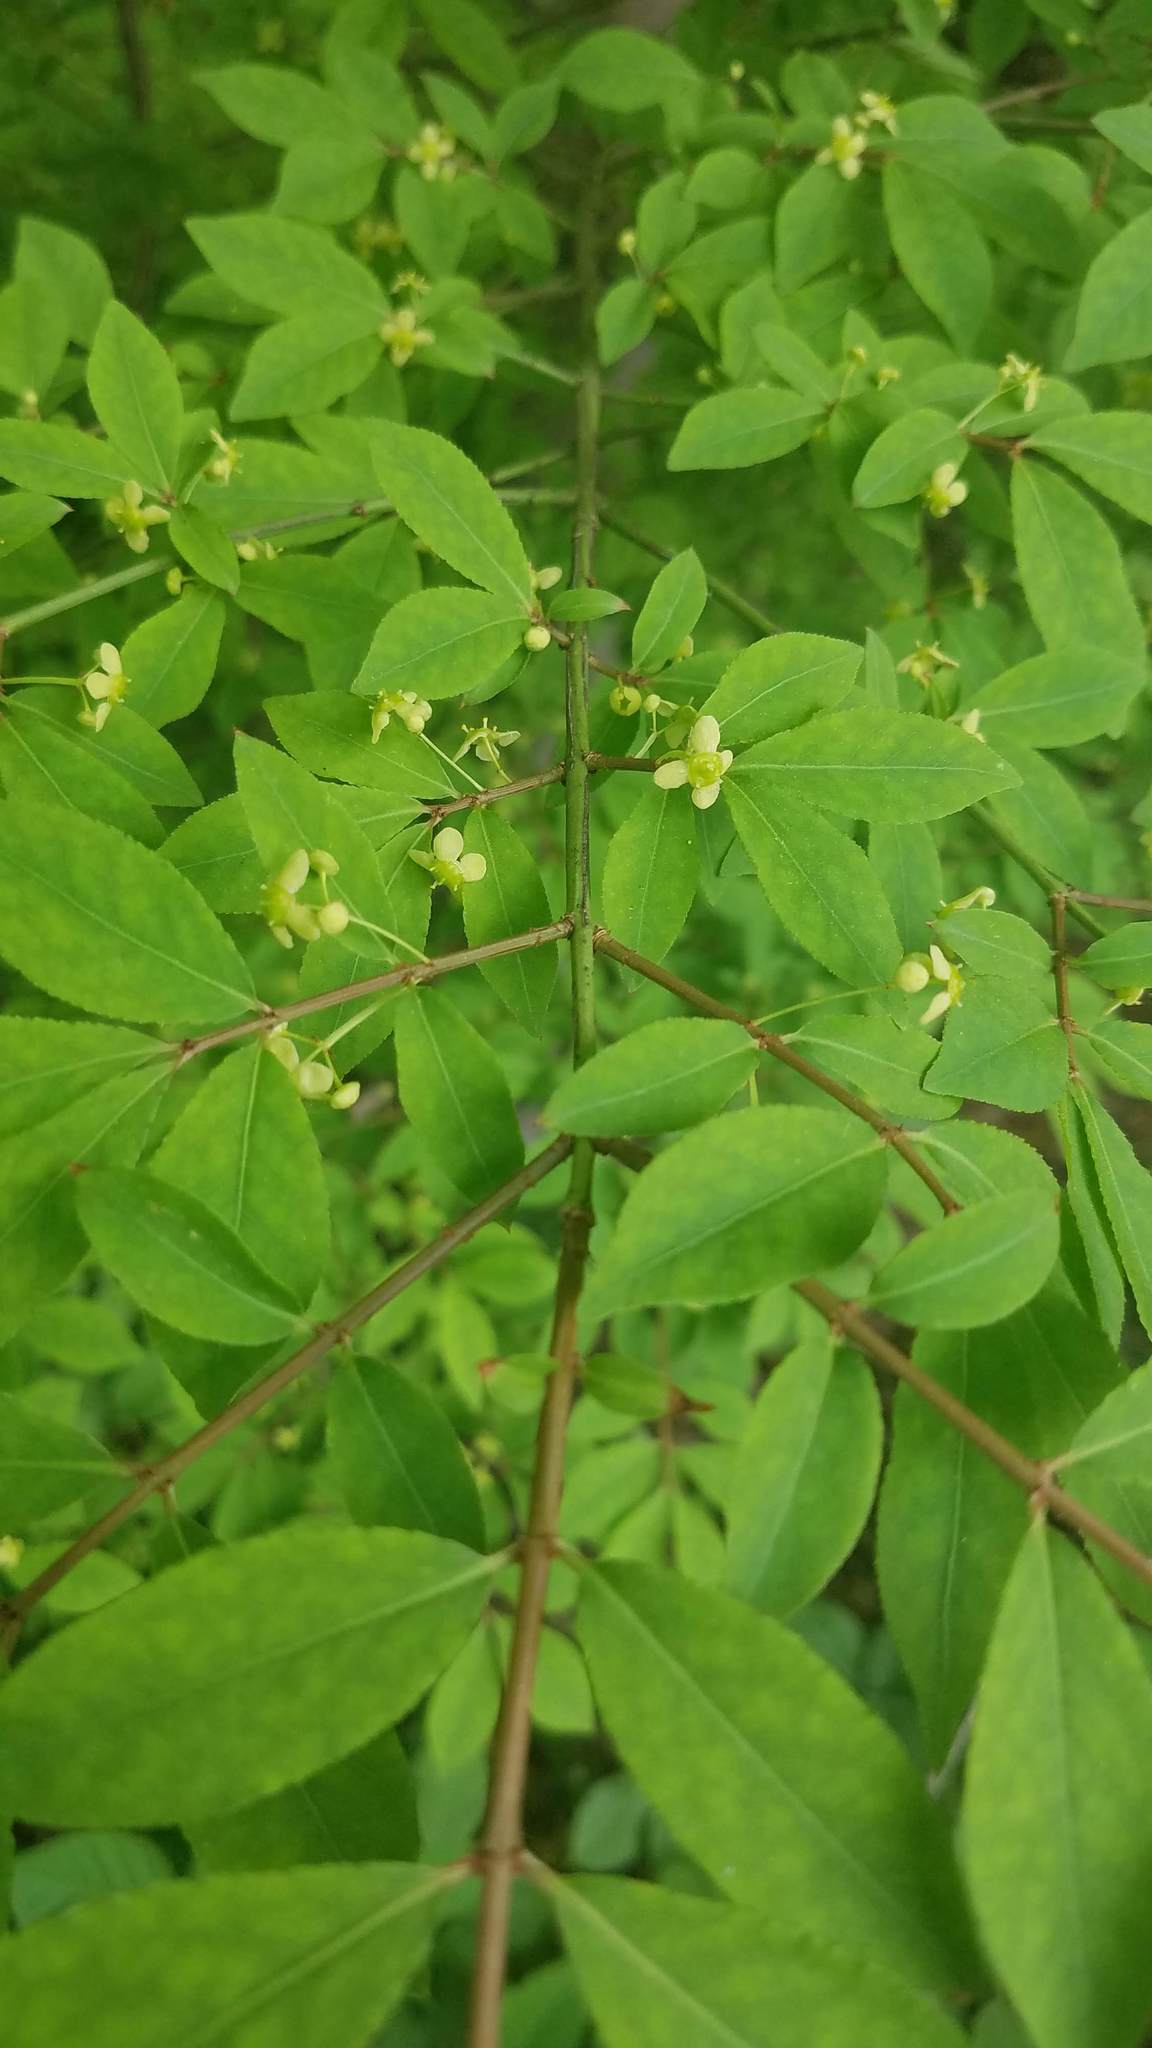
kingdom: Plantae
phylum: Tracheophyta
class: Magnoliopsida
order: Celastrales
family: Celastraceae
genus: Euonymus
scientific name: Euonymus alatus
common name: Winged euonymus
